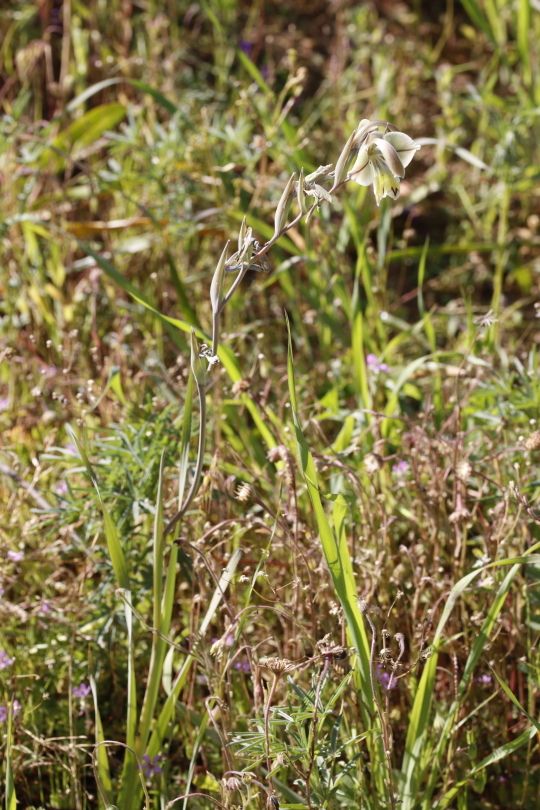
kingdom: Plantae
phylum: Tracheophyta
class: Liliopsida
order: Asparagales
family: Iridaceae
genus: Gladiolus
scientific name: Gladiolus orchidiflorus
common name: Gray kalkoentjie
